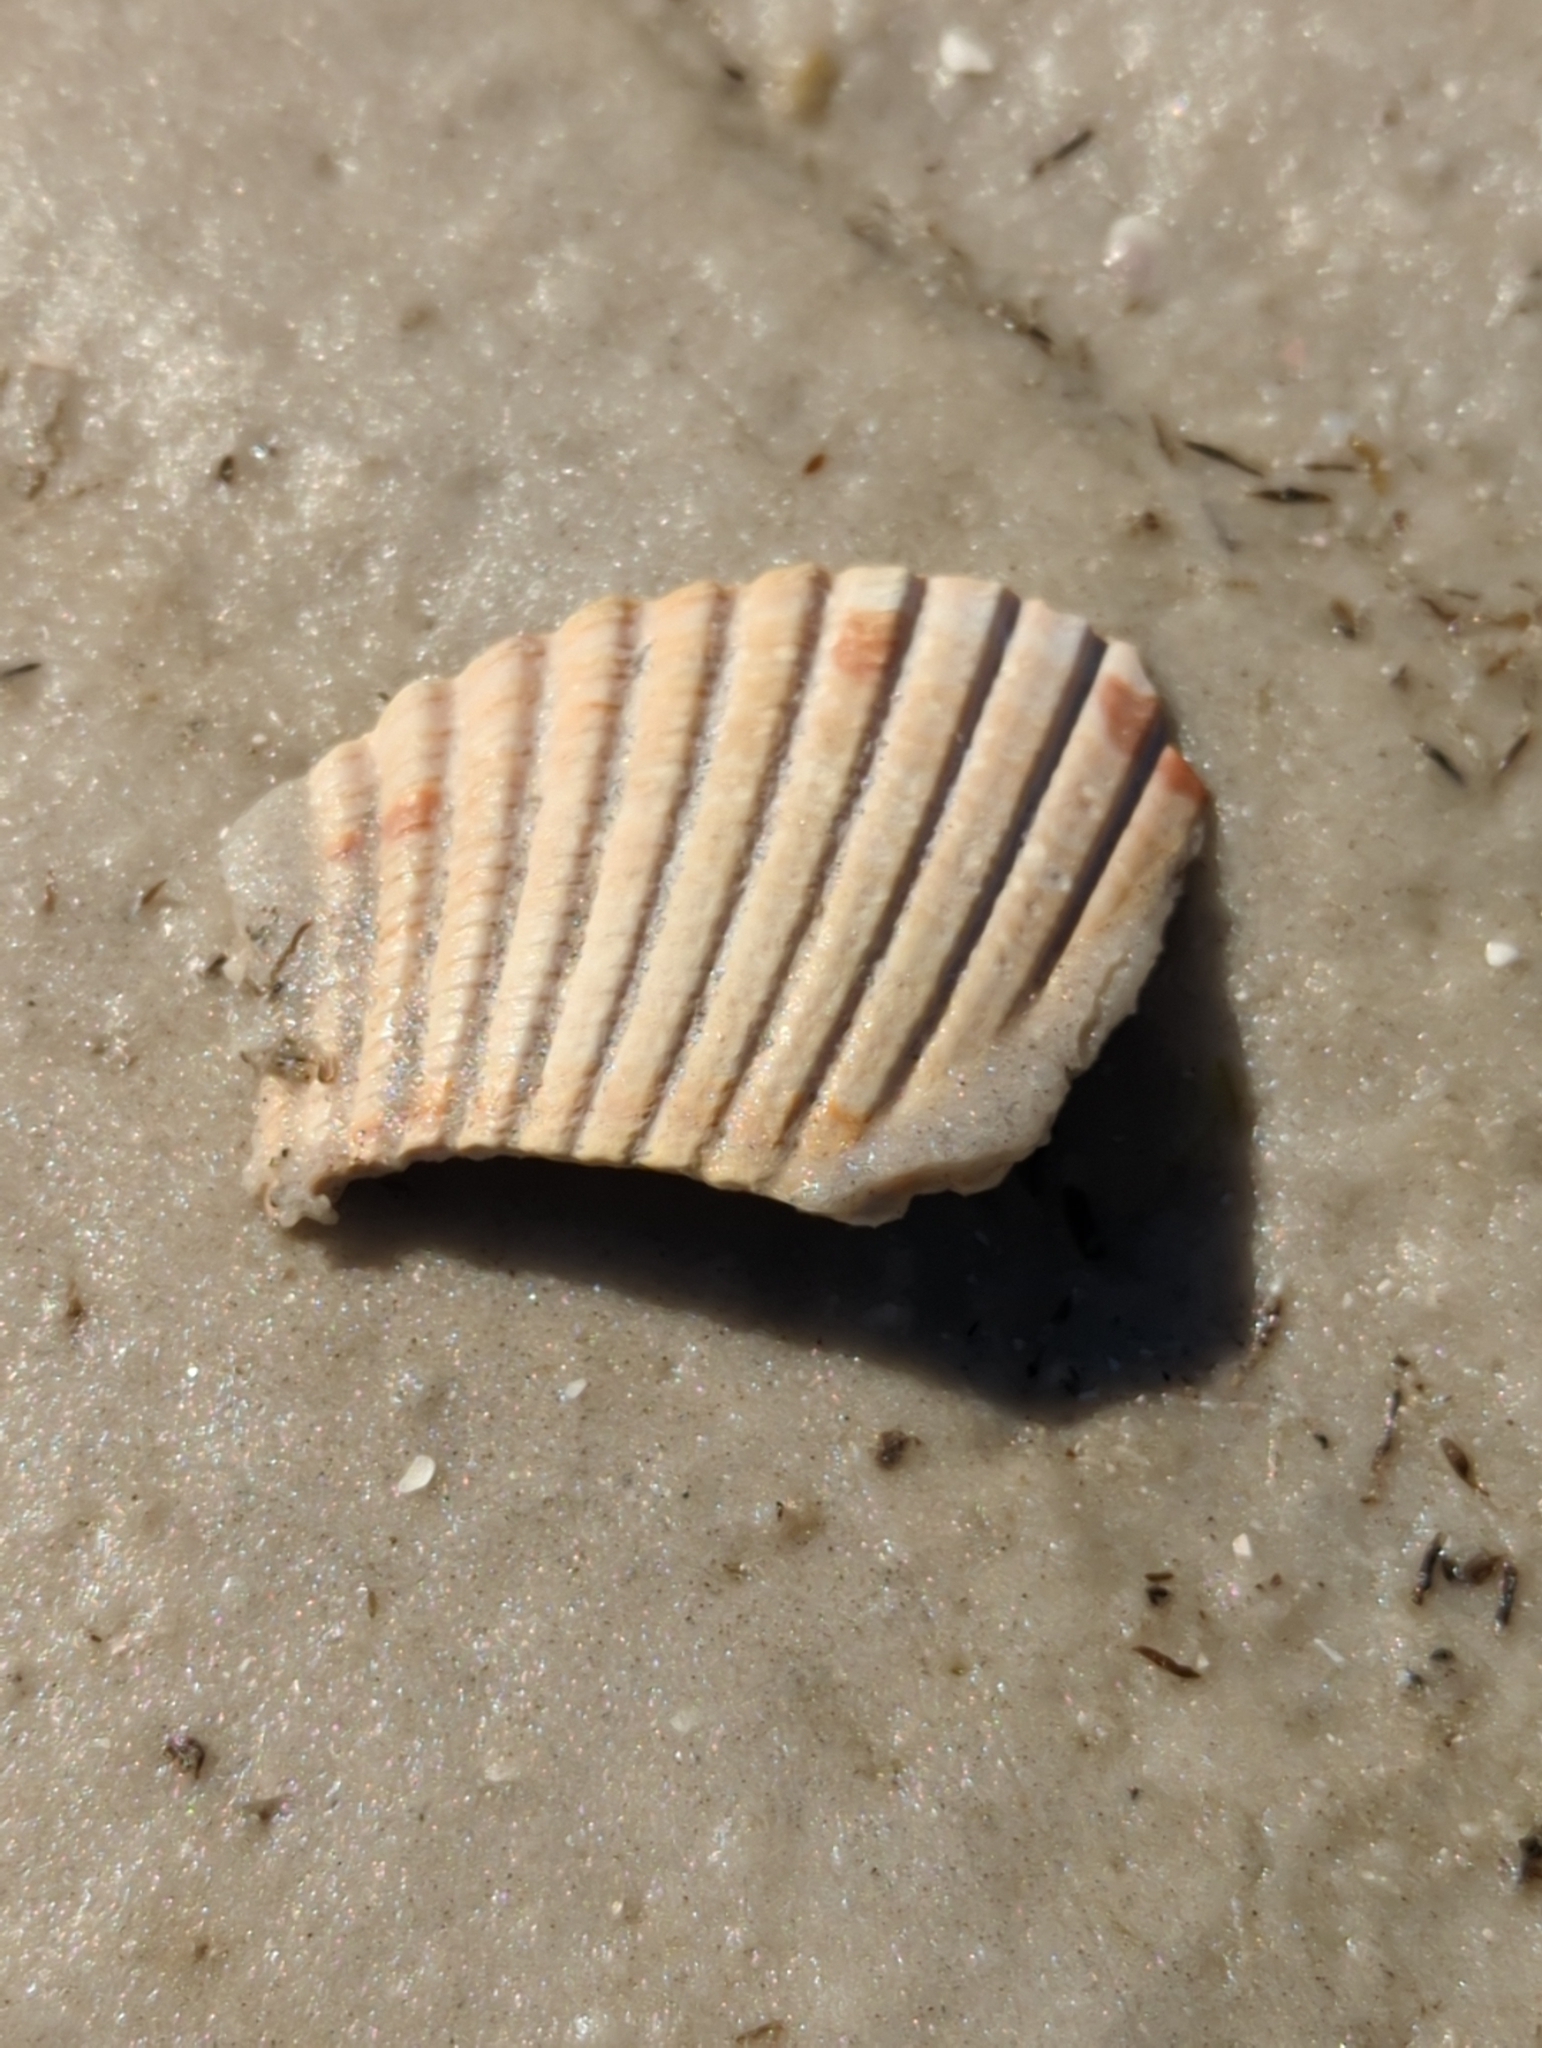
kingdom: Animalia
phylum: Mollusca
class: Bivalvia
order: Cardiida
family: Cardiidae
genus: Dinocardium
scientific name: Dinocardium robustum
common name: Atlantic giant cockle
